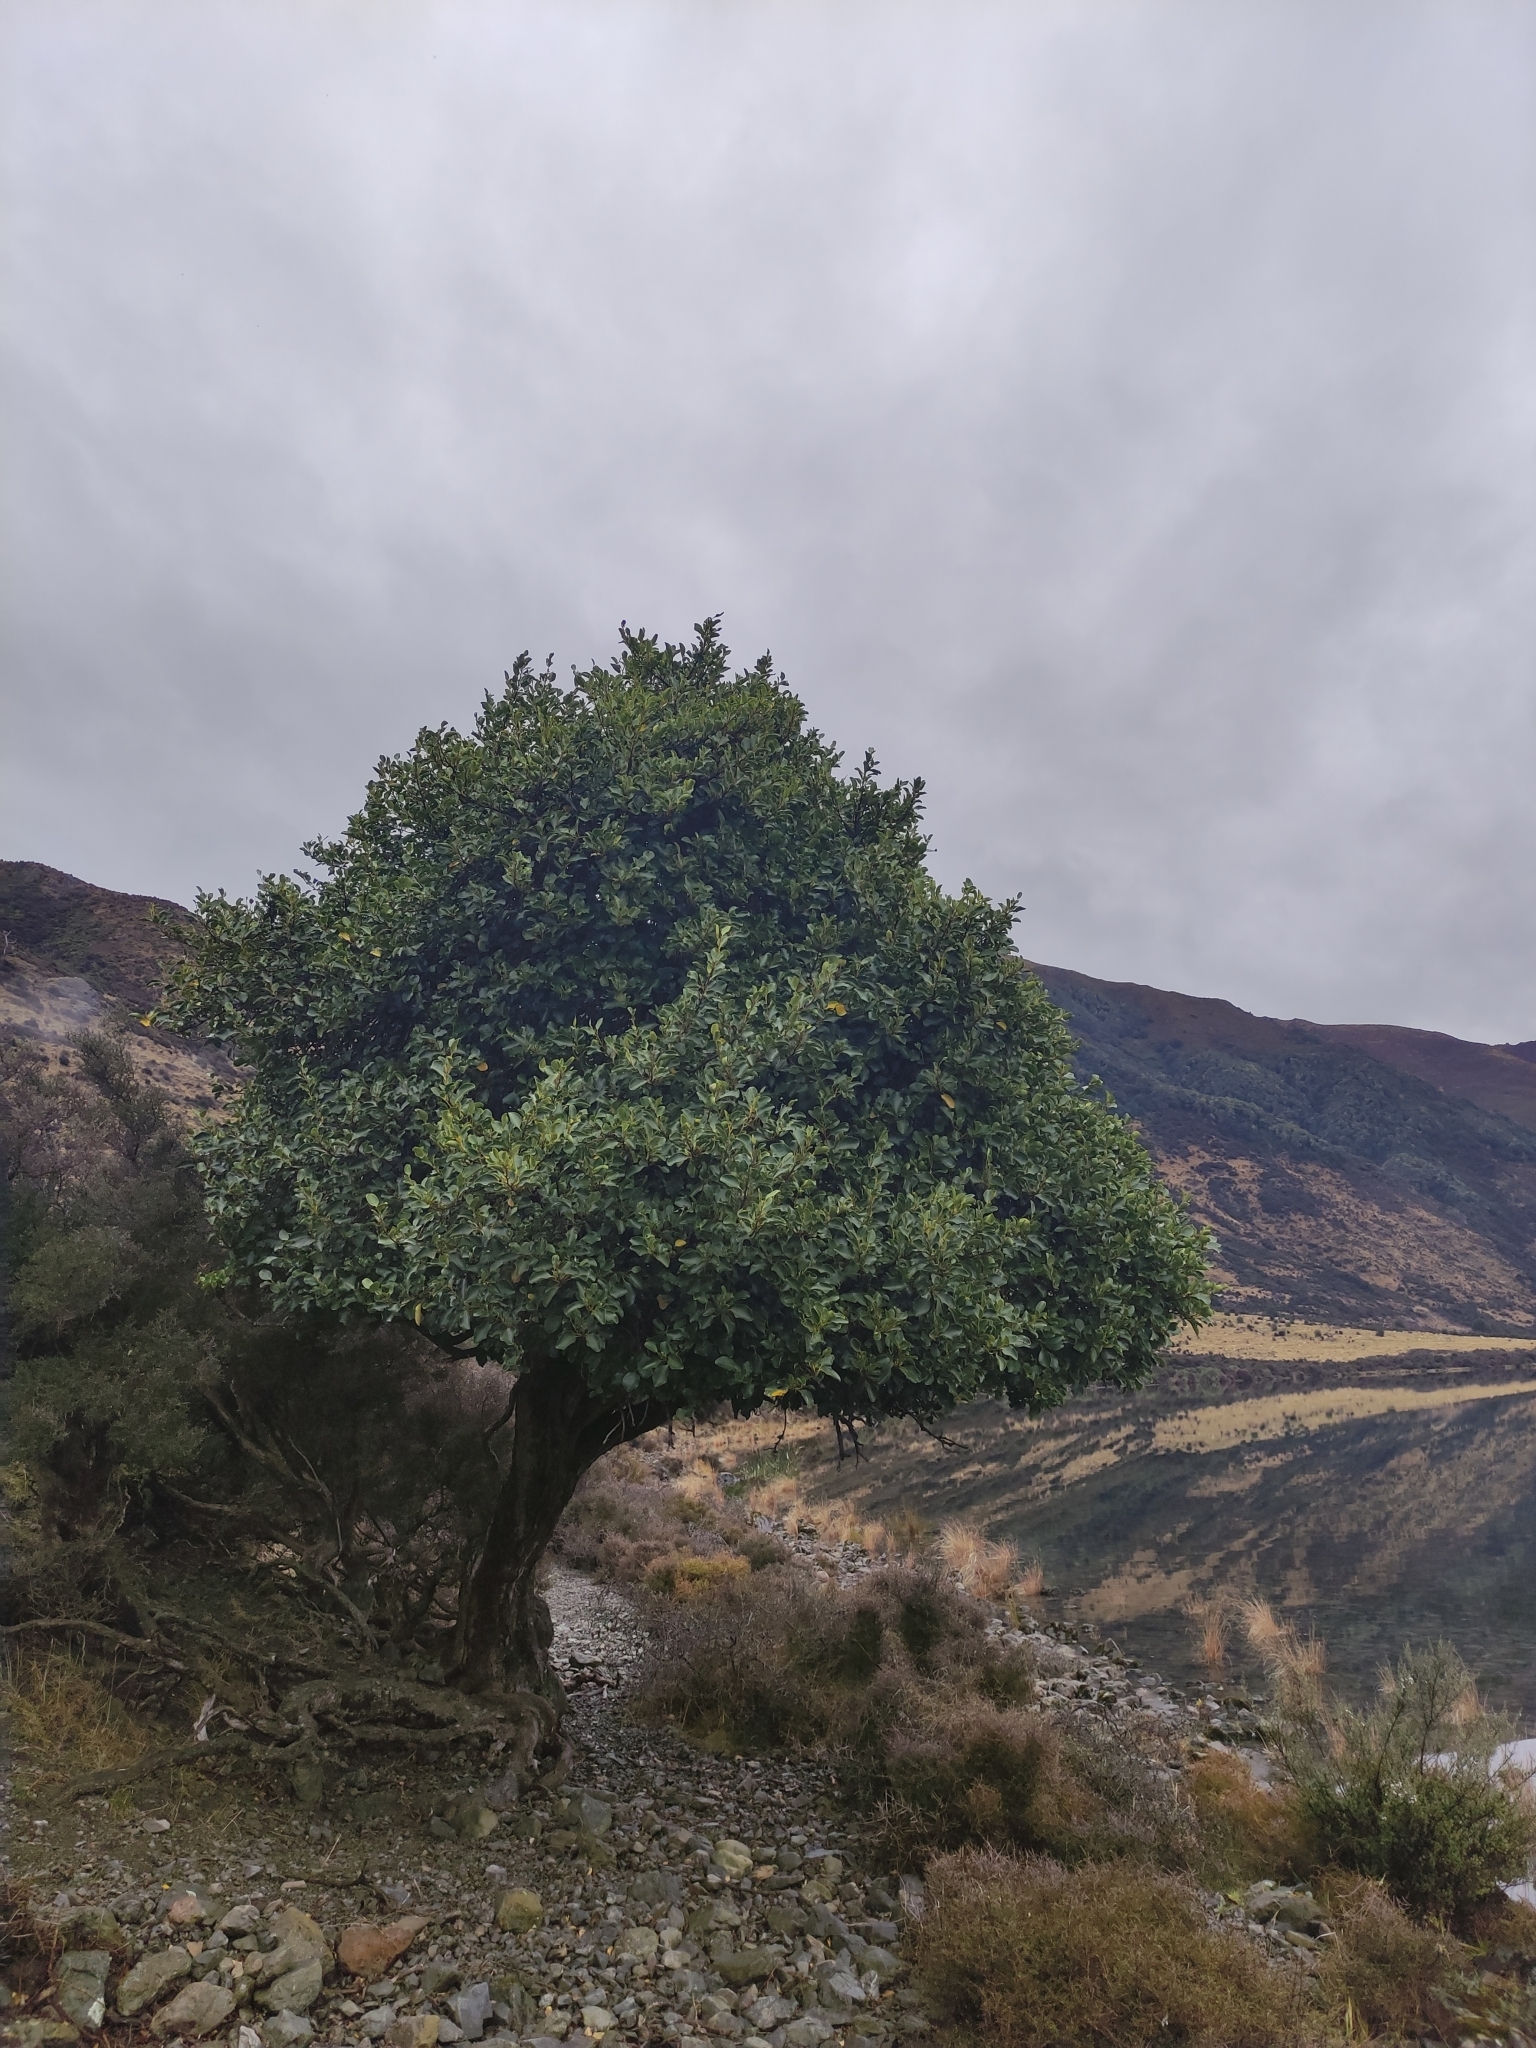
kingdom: Plantae
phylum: Tracheophyta
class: Magnoliopsida
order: Apiales
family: Griseliniaceae
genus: Griselinia
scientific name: Griselinia littoralis
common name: New zealand broadleaf
